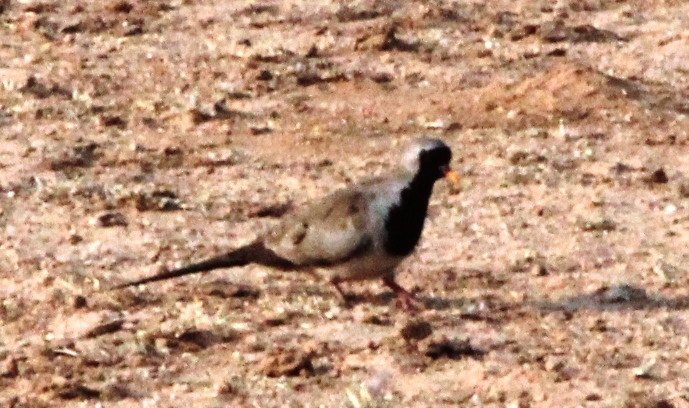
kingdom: Animalia
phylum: Chordata
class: Aves
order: Columbiformes
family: Columbidae
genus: Oena
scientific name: Oena capensis
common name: Namaqua dove
